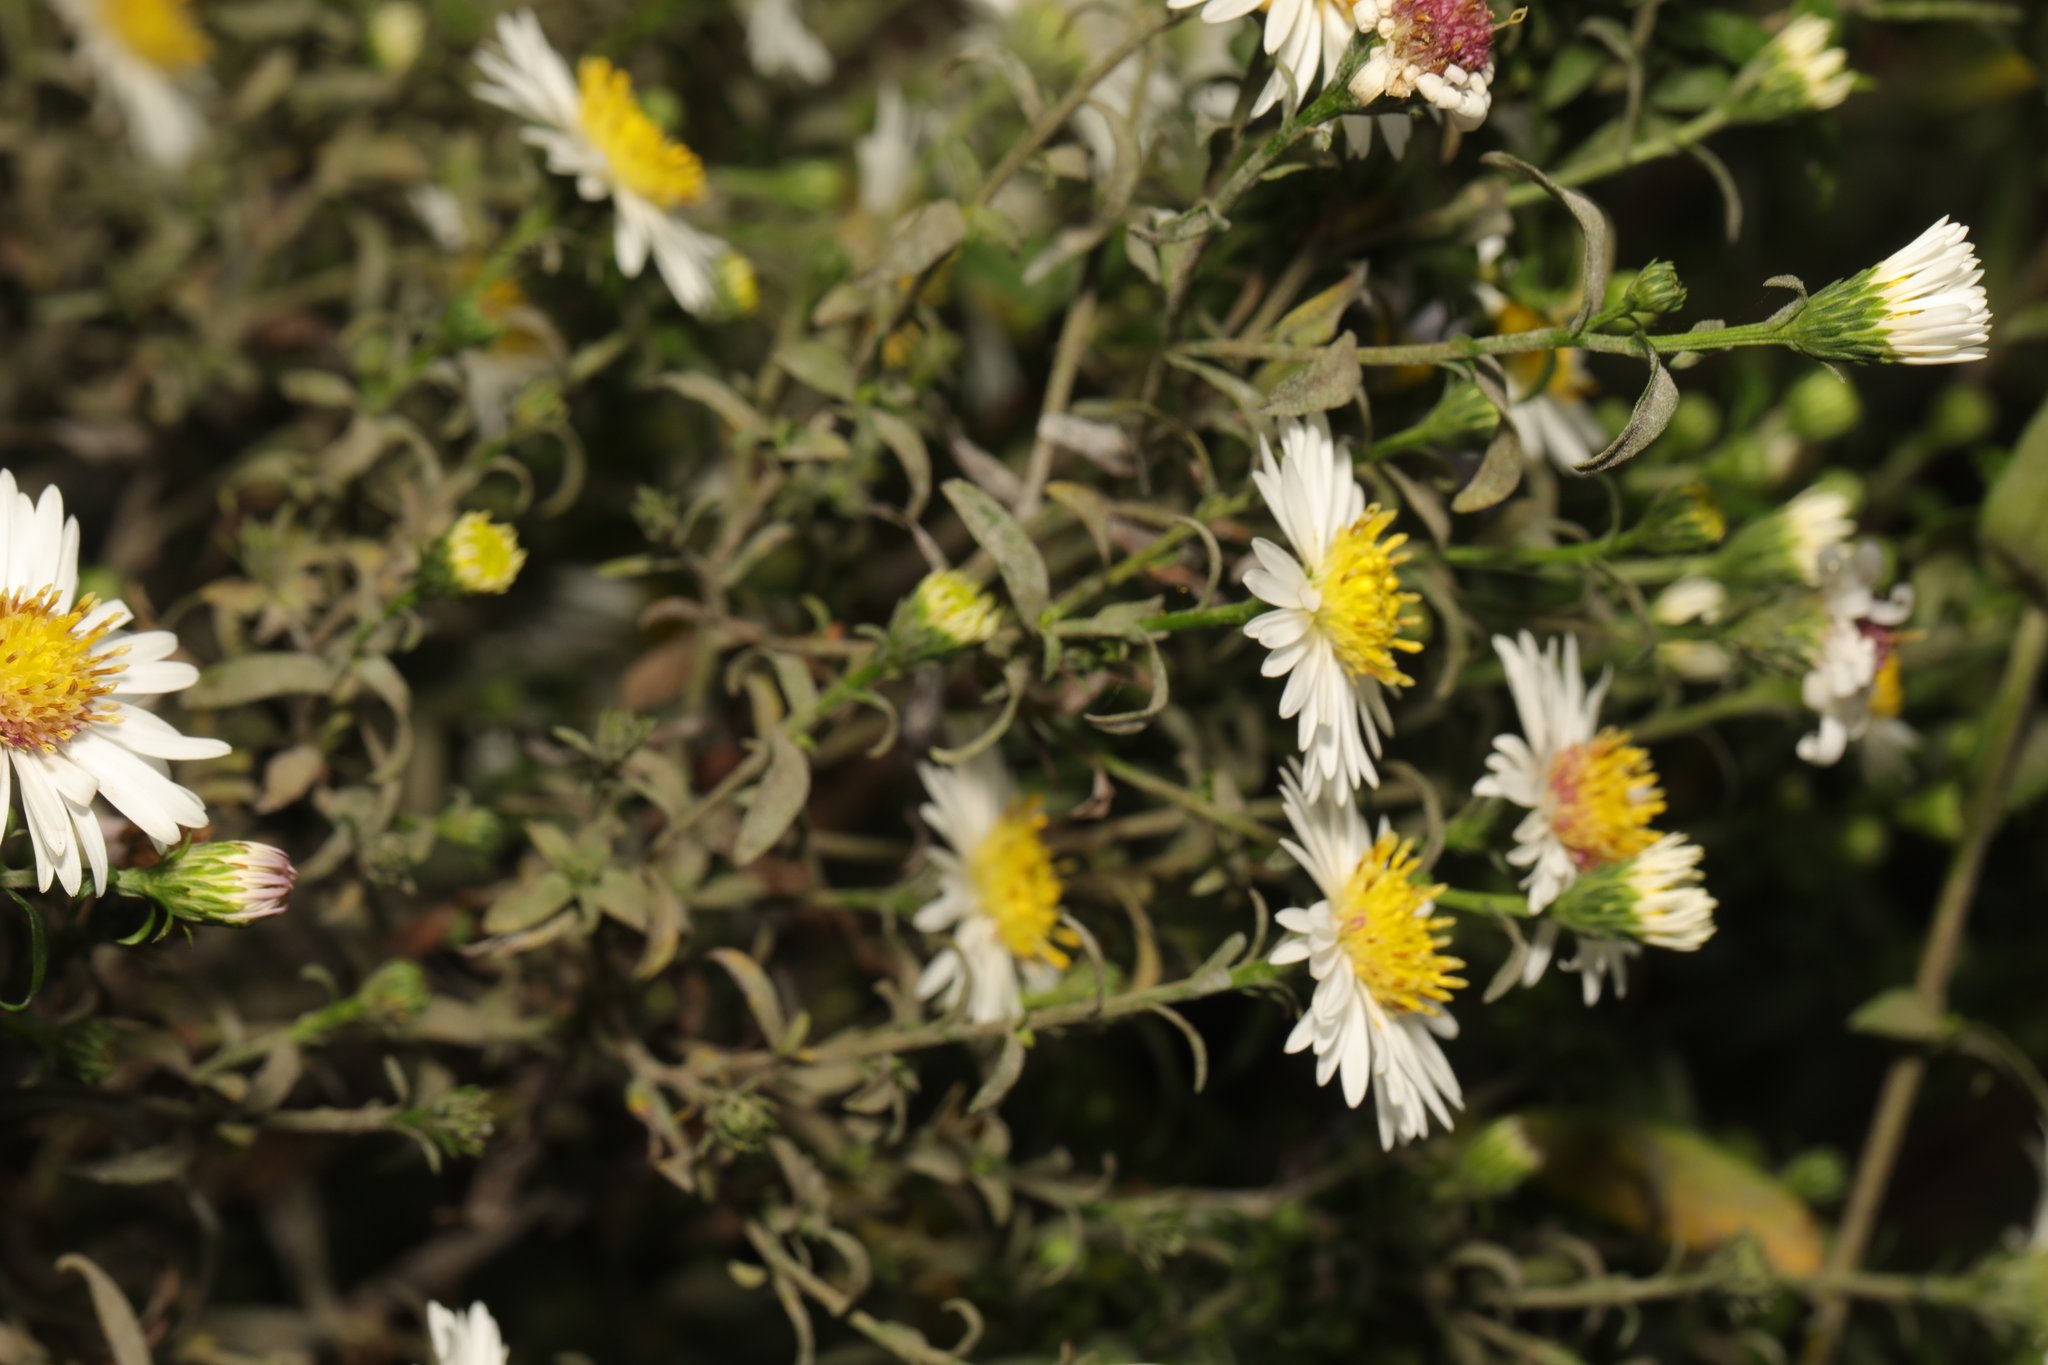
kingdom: Plantae
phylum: Tracheophyta
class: Magnoliopsida
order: Asterales
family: Asteraceae
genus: Symphyotrichum
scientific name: Symphyotrichum
